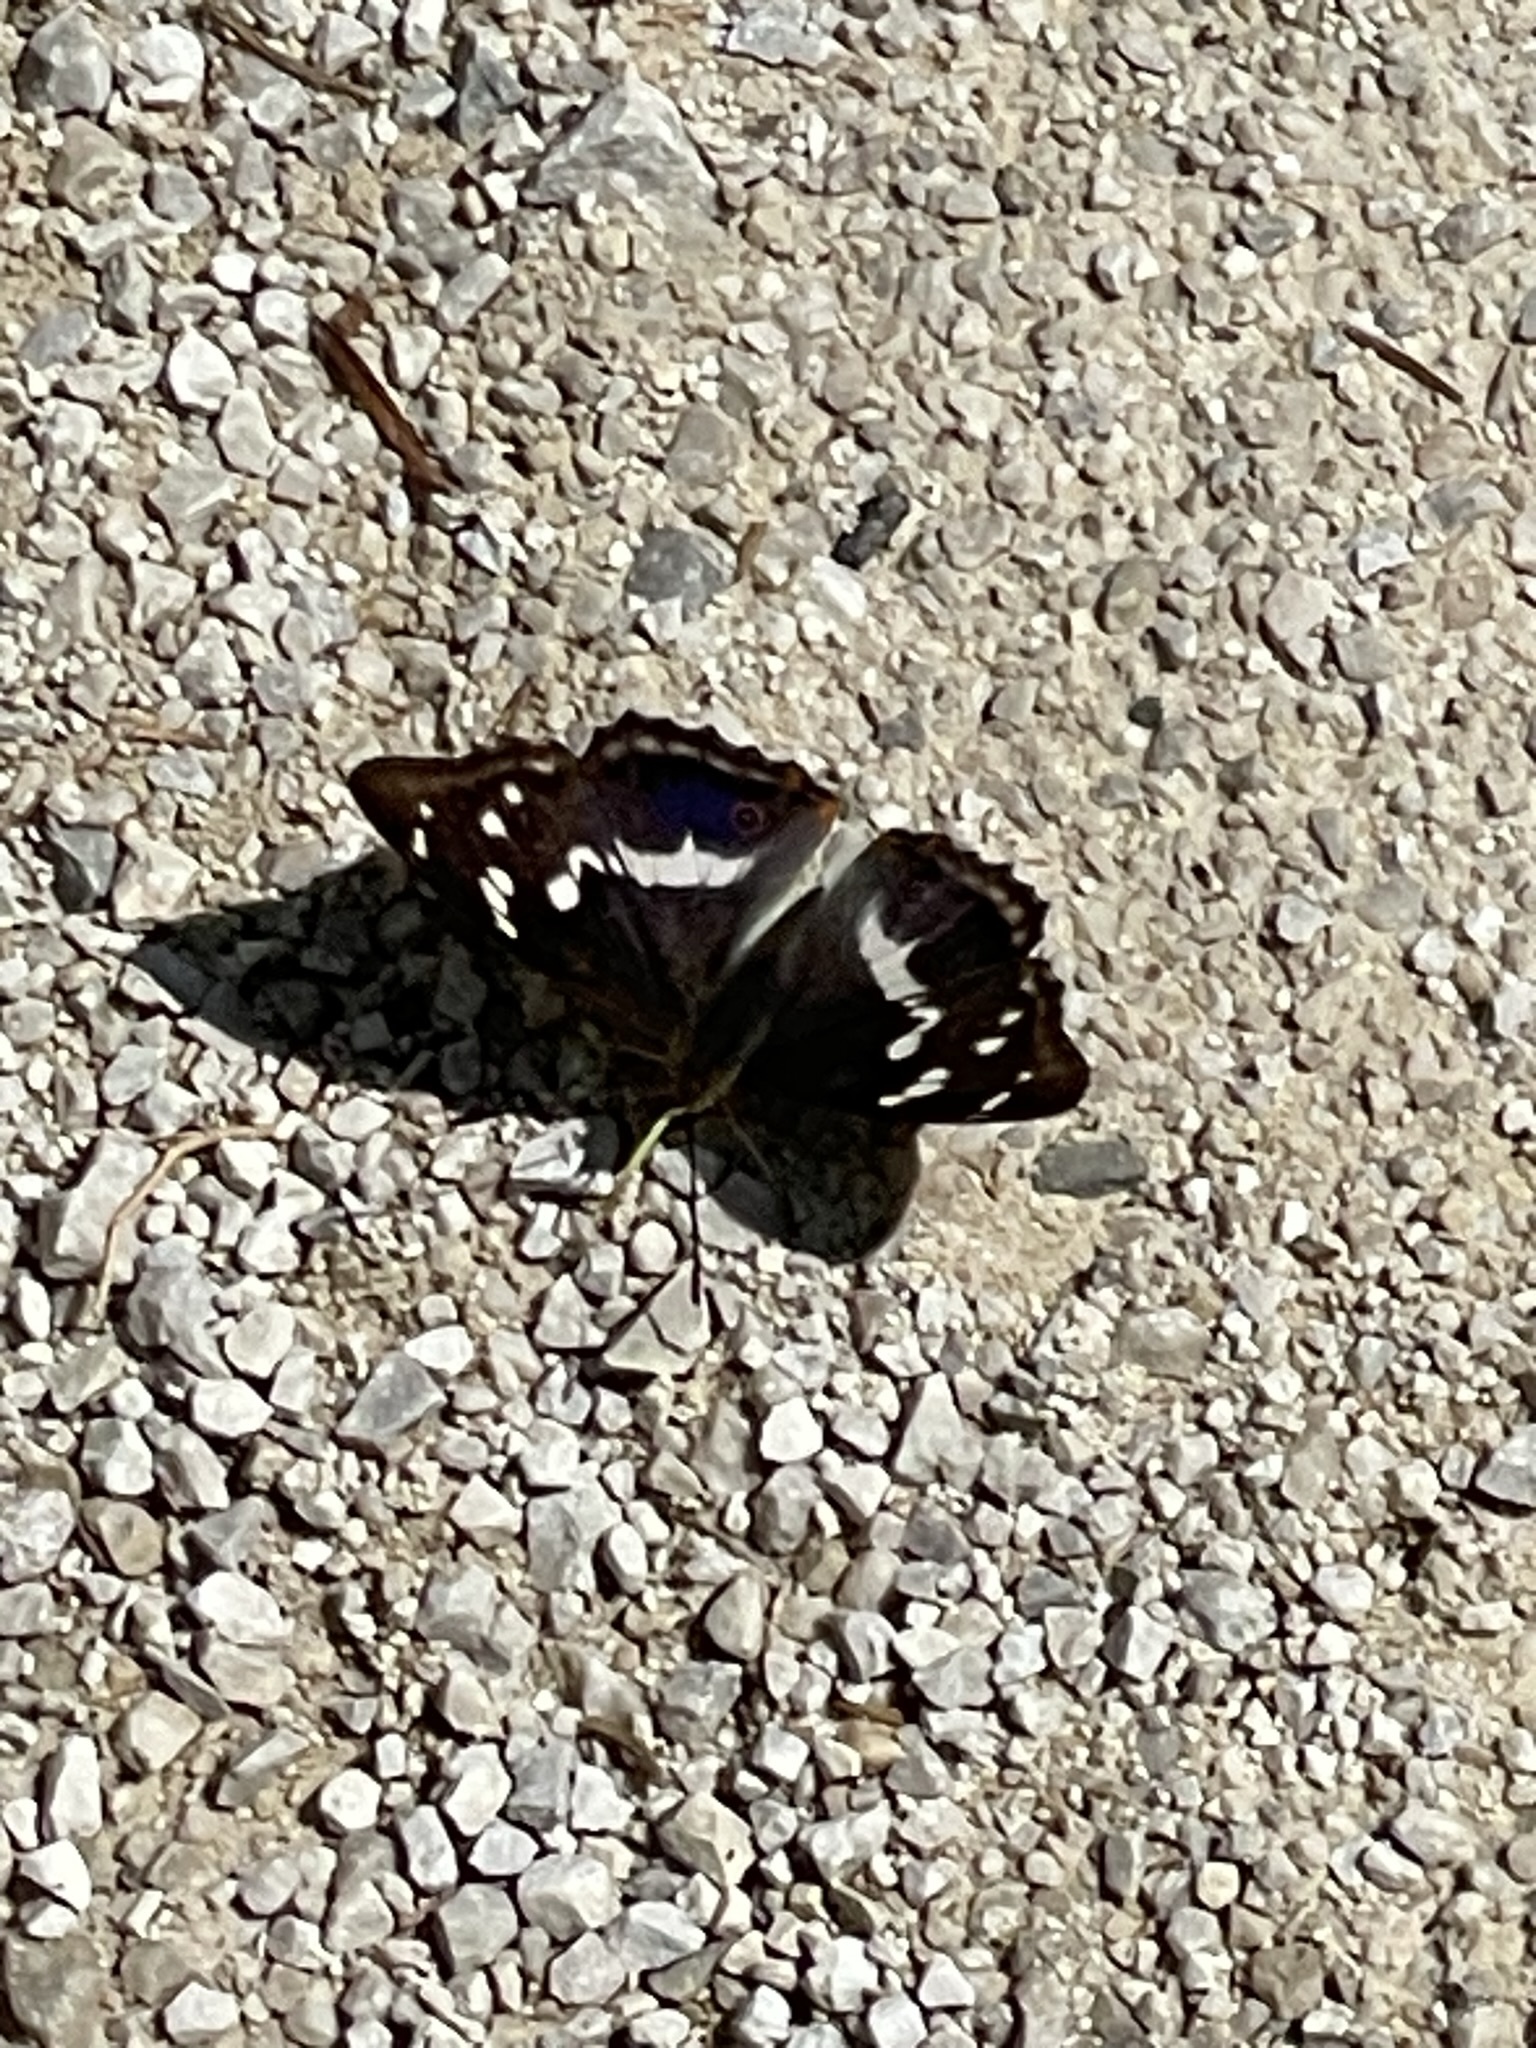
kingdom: Animalia
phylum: Arthropoda
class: Insecta
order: Lepidoptera
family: Nymphalidae
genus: Apatura
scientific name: Apatura iris
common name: Purple emperor
